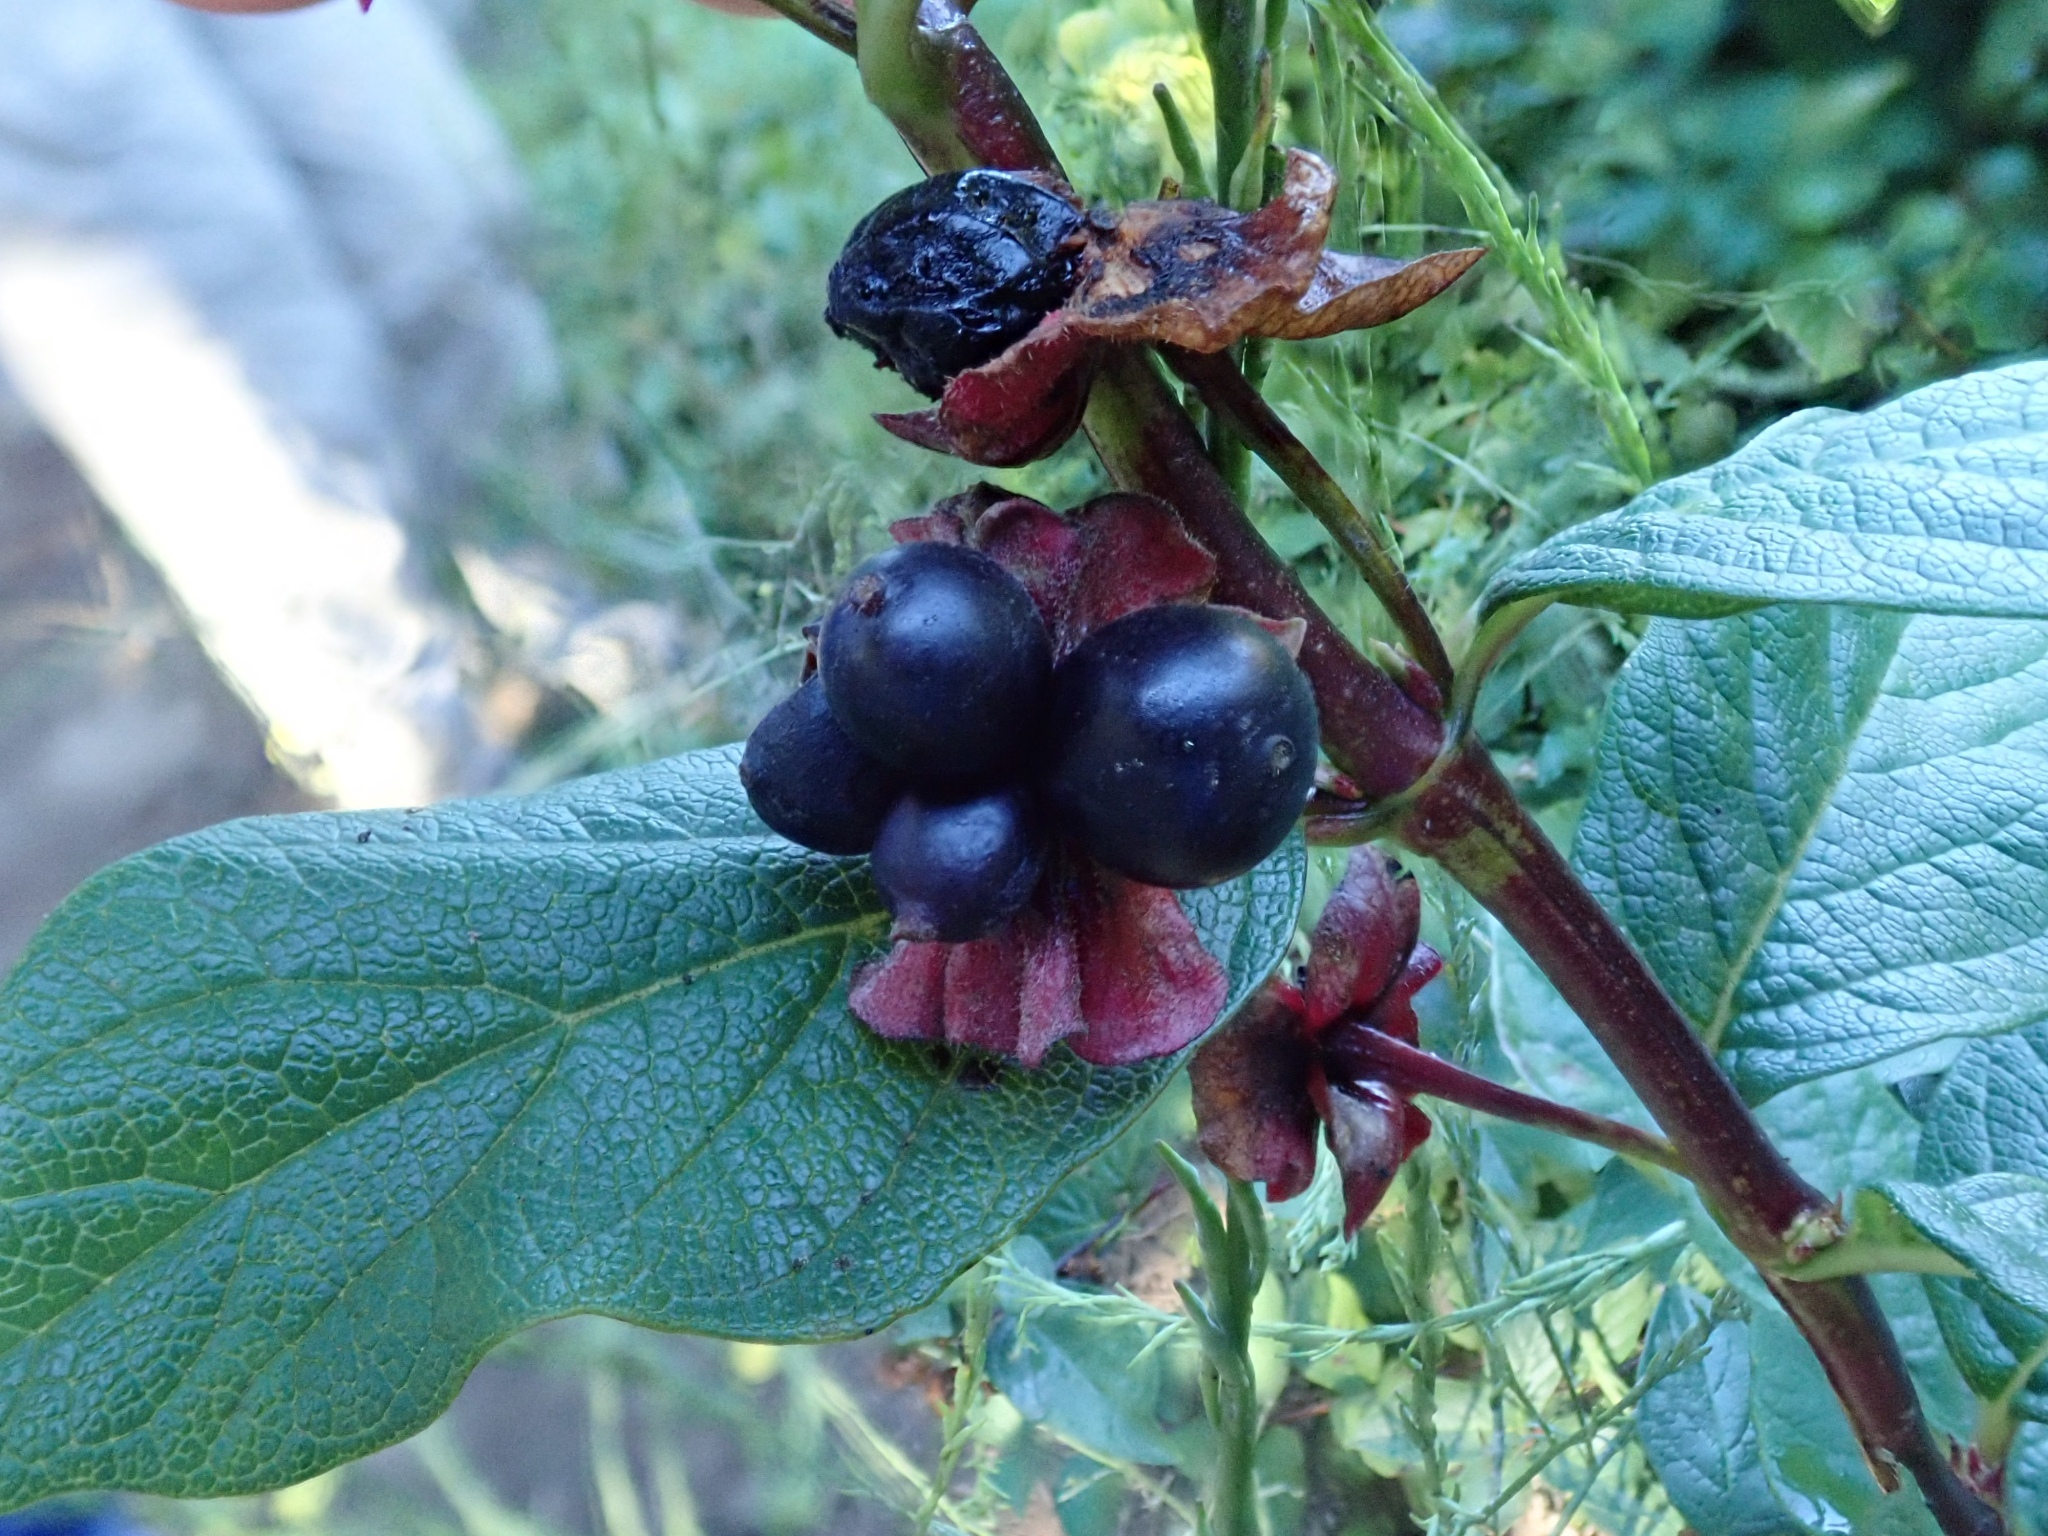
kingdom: Plantae
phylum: Tracheophyta
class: Magnoliopsida
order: Dipsacales
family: Caprifoliaceae
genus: Lonicera
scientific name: Lonicera involucrata
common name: Californian honeysuckle
